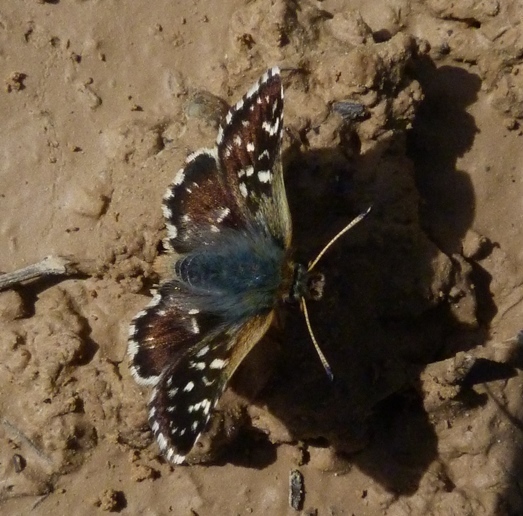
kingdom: Animalia
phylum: Arthropoda
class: Insecta
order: Lepidoptera
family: Hesperiidae
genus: Spialia
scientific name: Spialia sertorius
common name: Red underwing skipper
